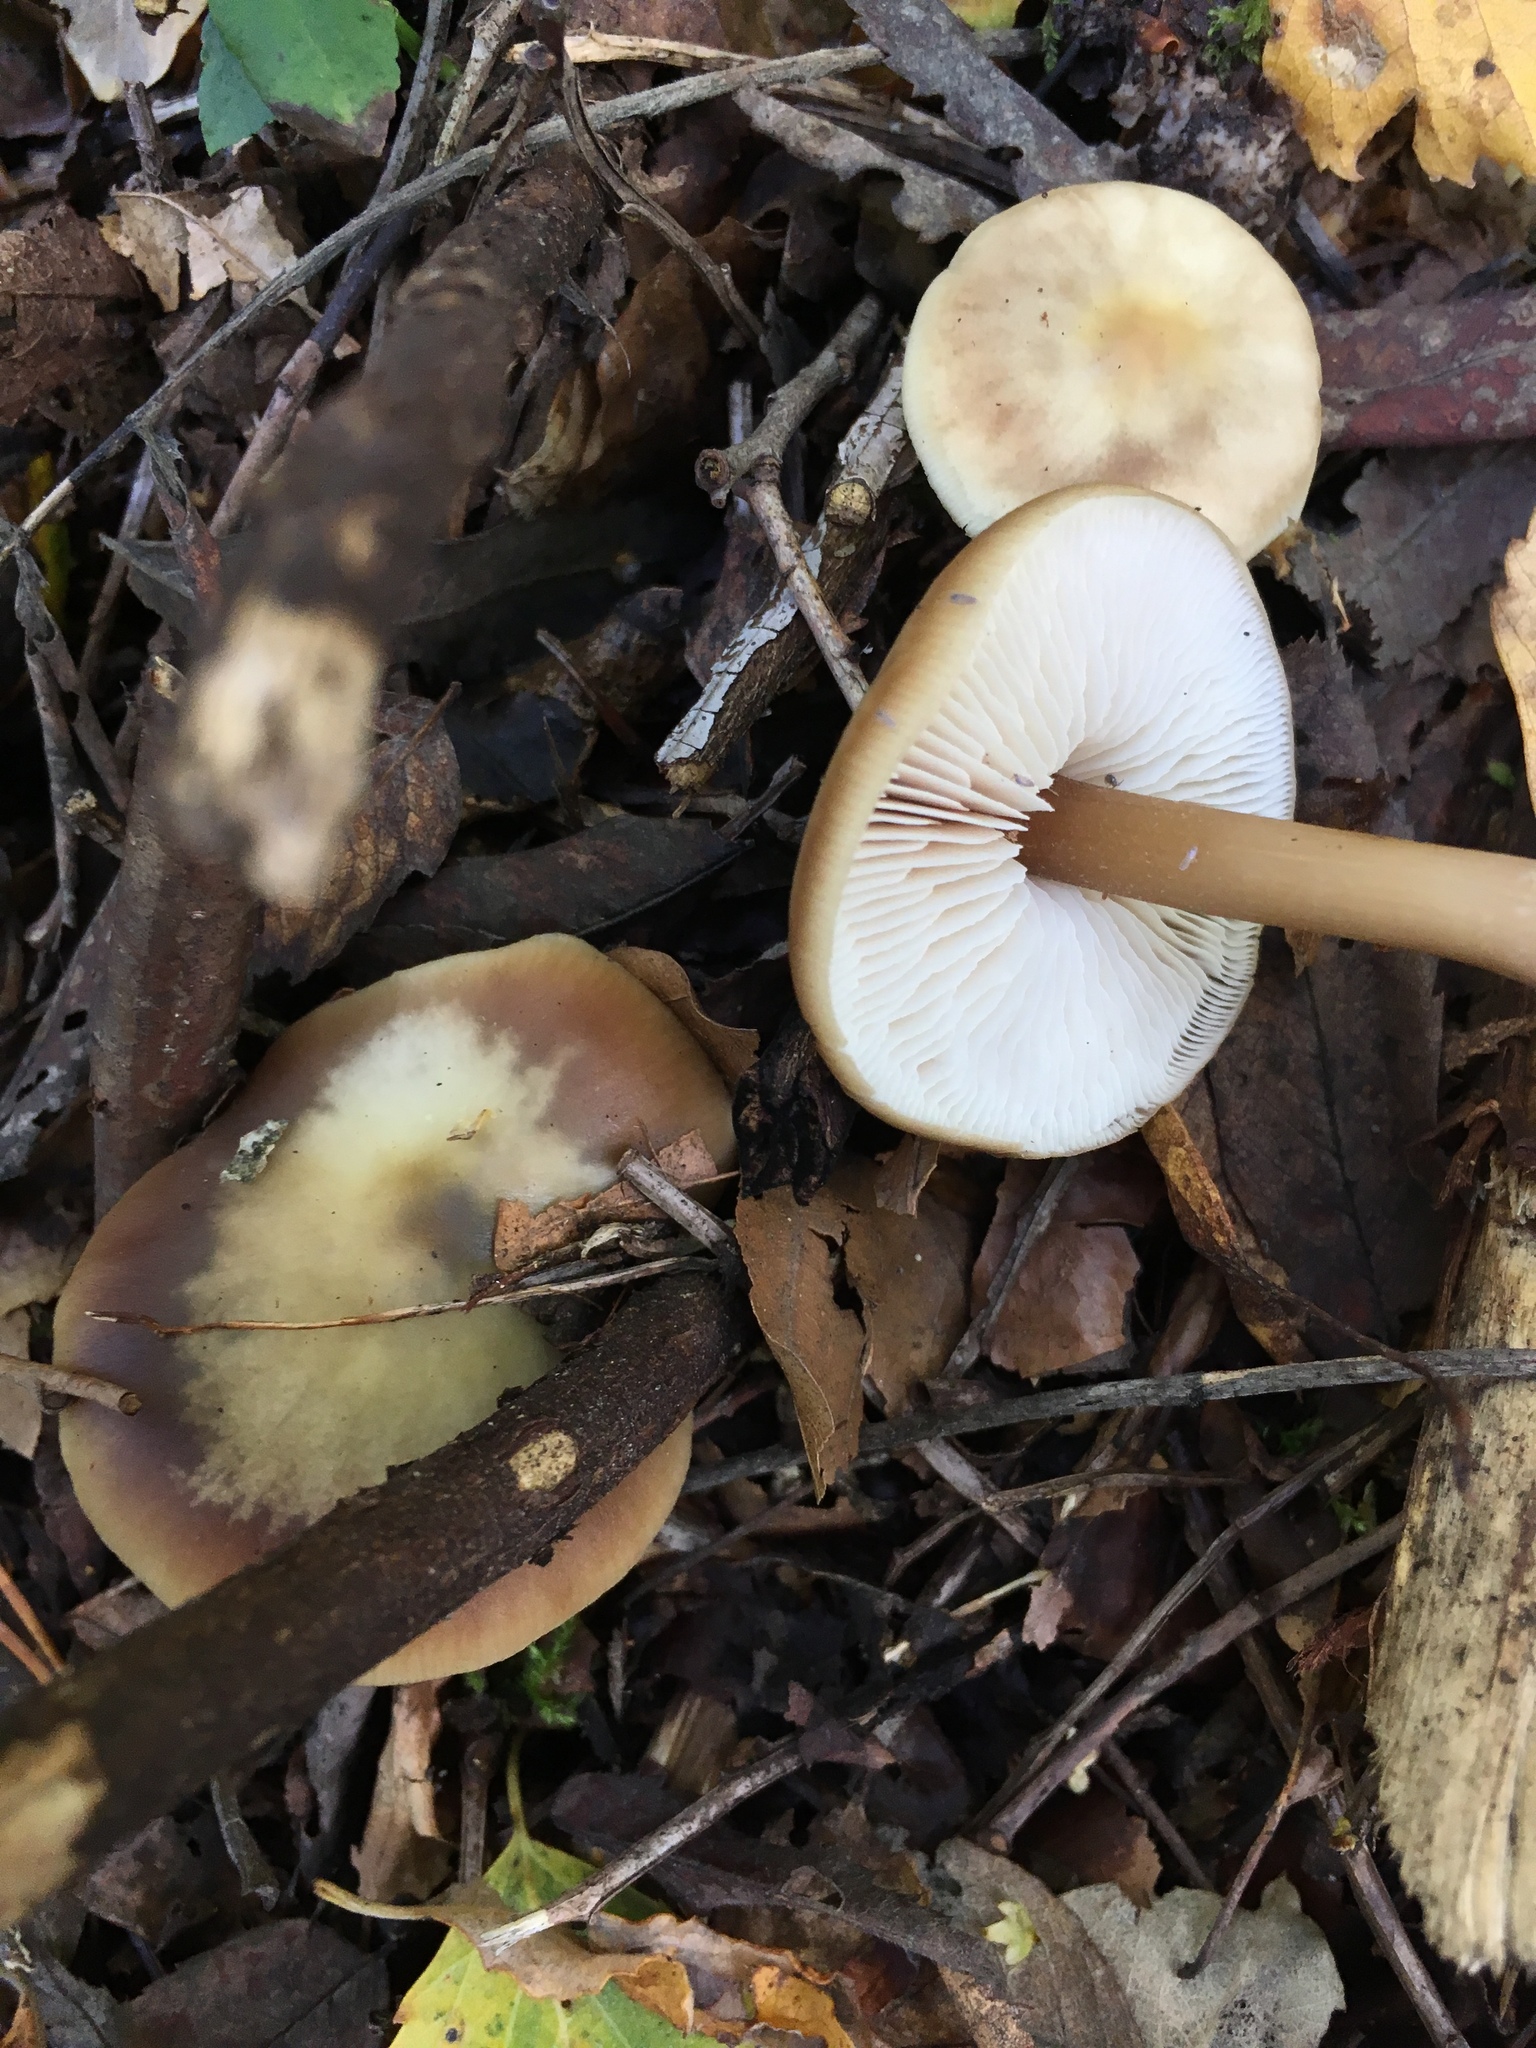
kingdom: Fungi
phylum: Basidiomycota
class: Agaricomycetes
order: Agaricales
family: Omphalotaceae
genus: Rhodocollybia
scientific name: Rhodocollybia butyracea
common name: Butter cap
